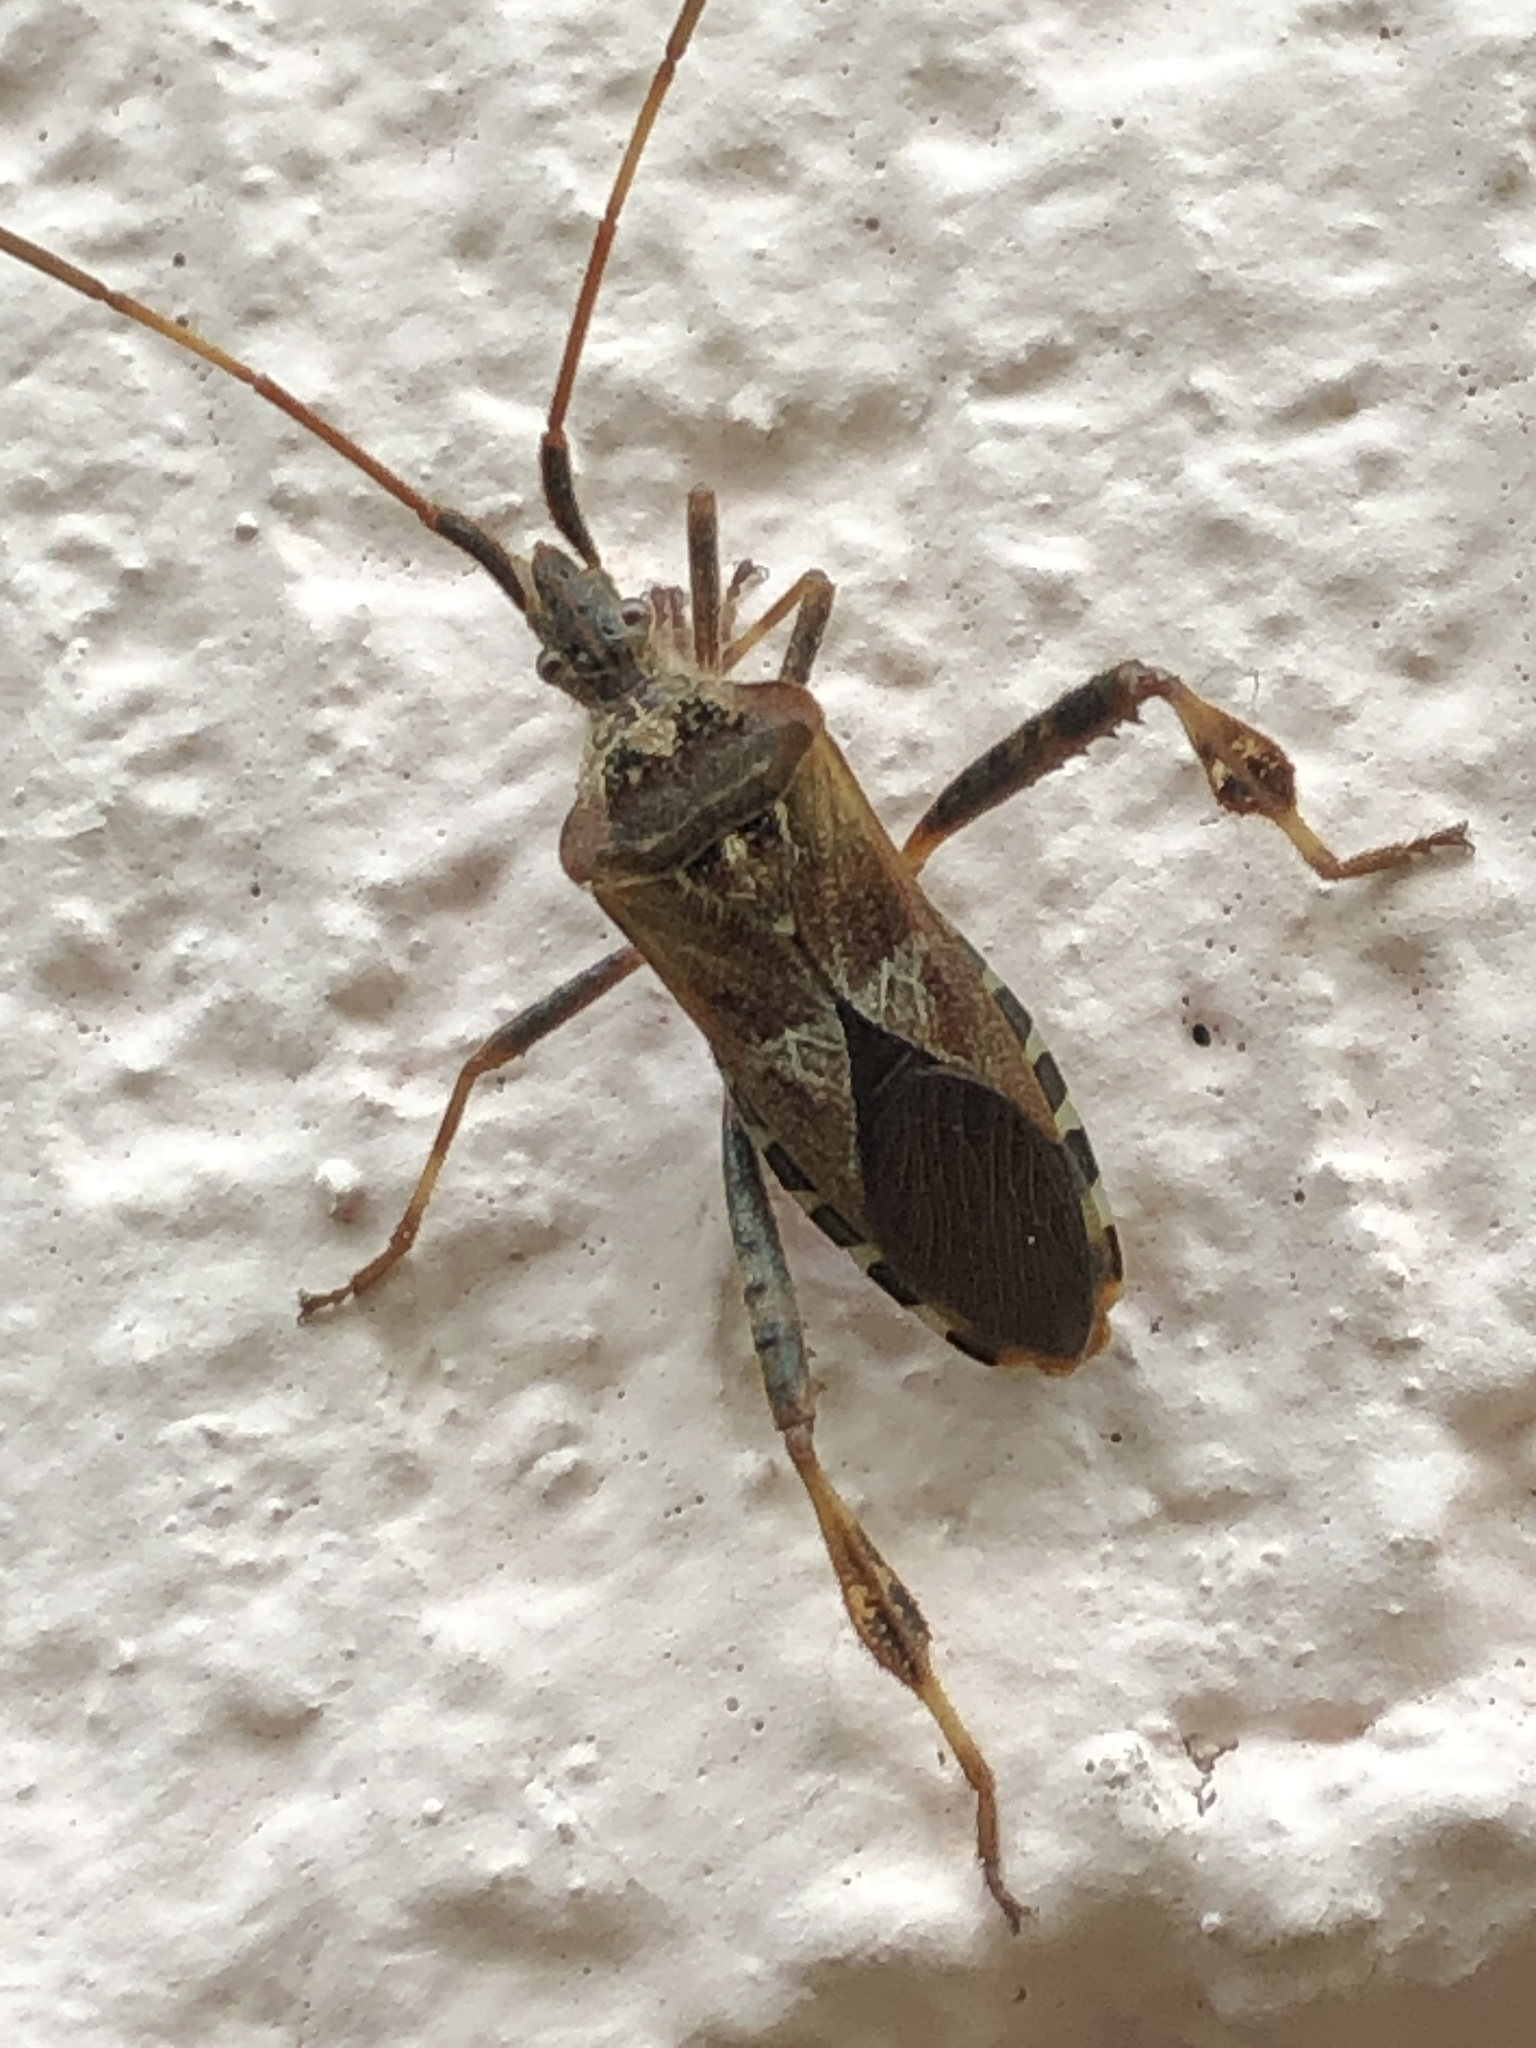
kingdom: Animalia
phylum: Arthropoda
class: Insecta
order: Hemiptera
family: Coreidae
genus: Leptoglossus
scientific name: Leptoglossus occidentalis
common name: Western conifer-seed bug
